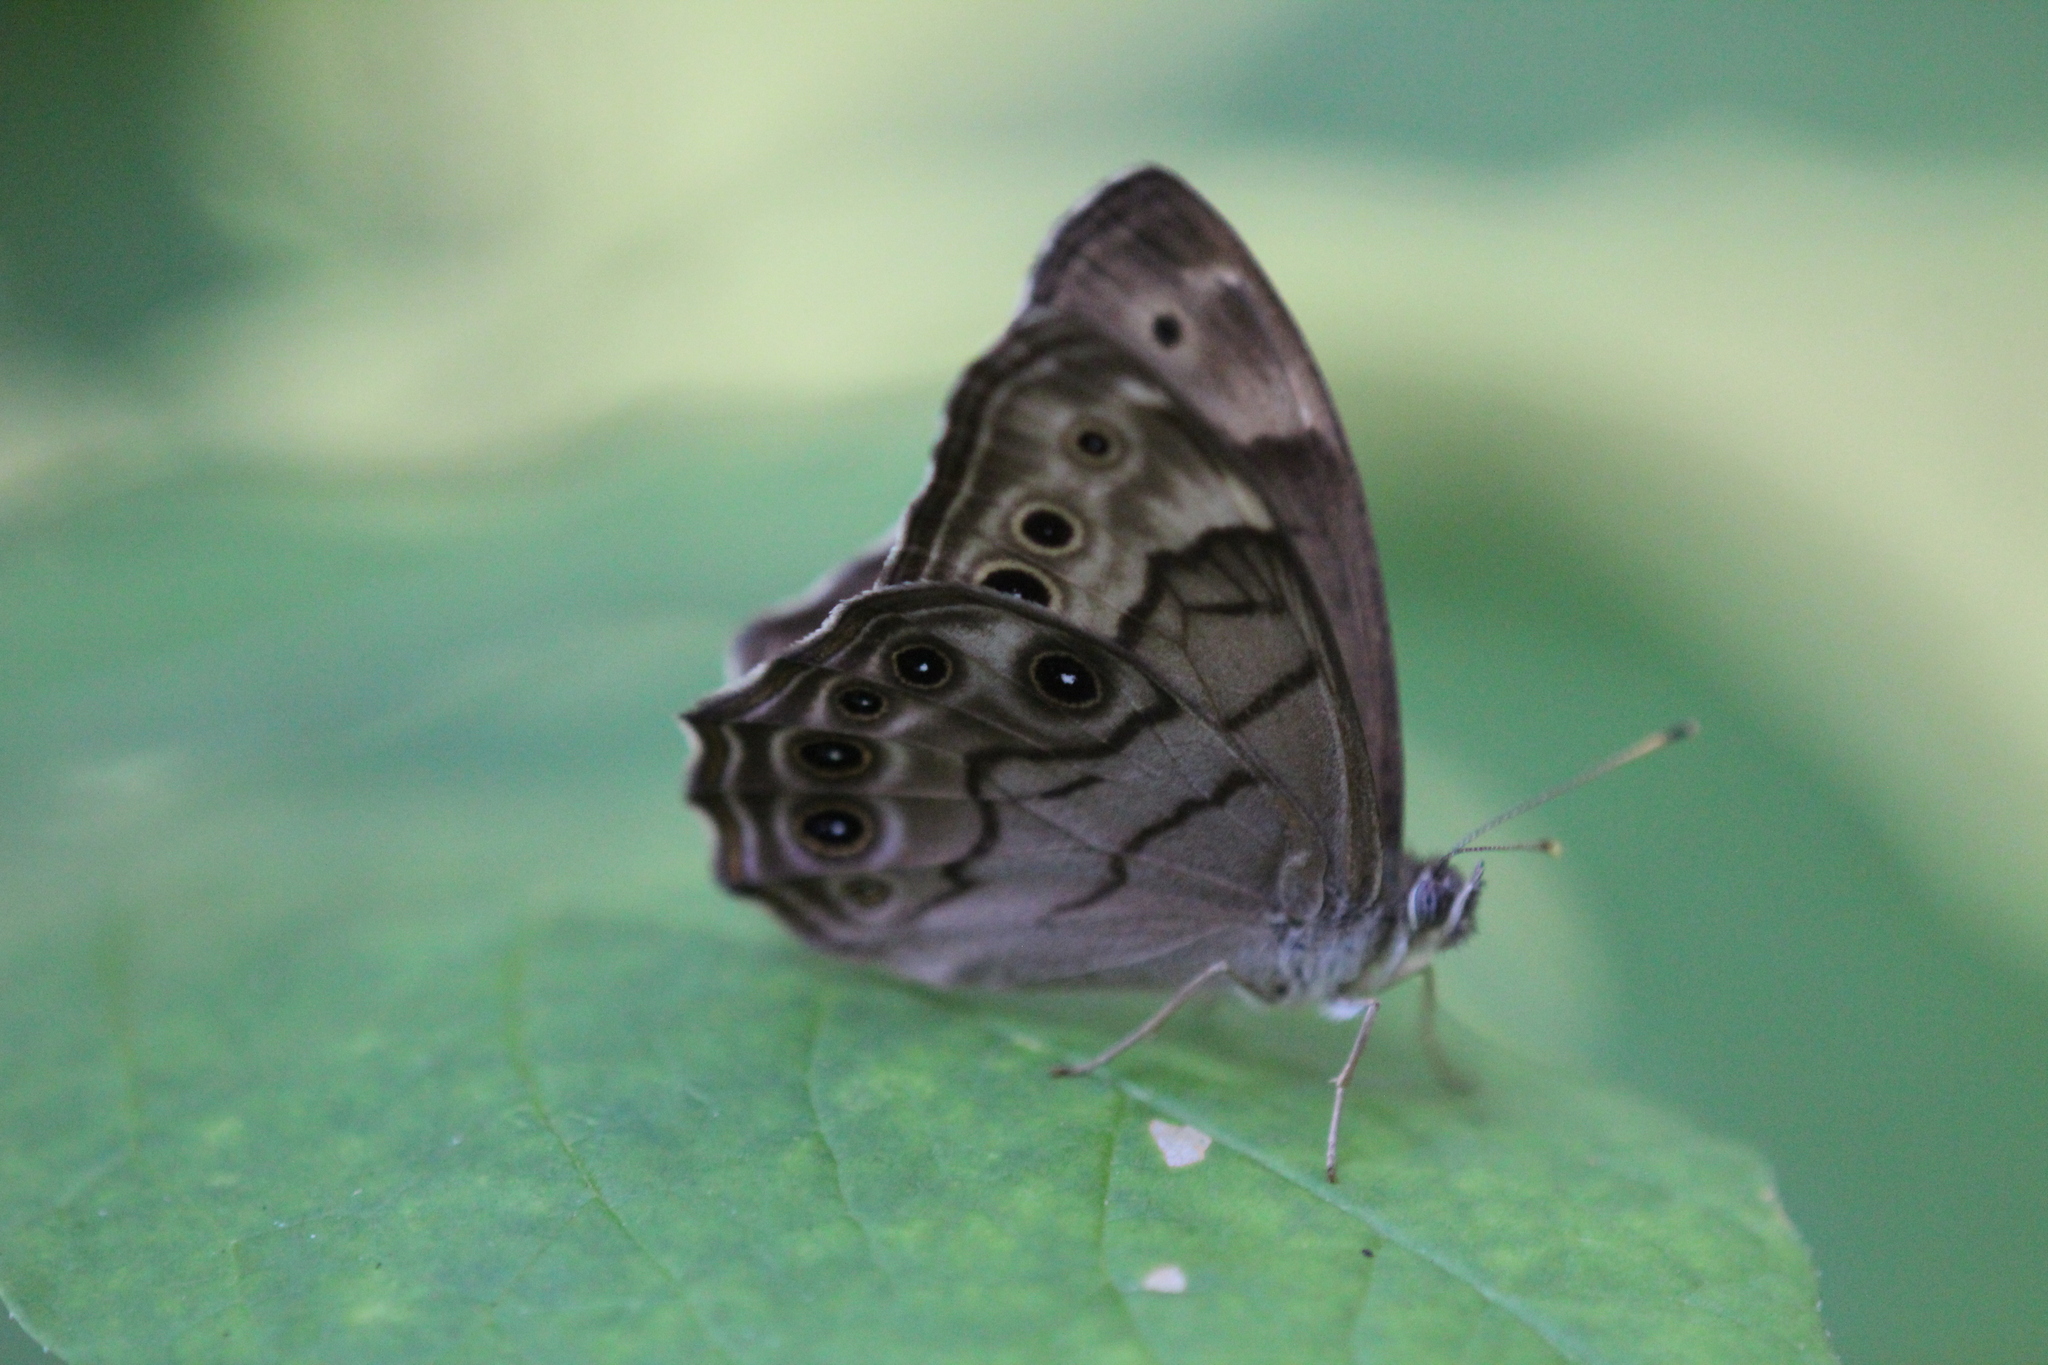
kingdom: Animalia
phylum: Arthropoda
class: Insecta
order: Lepidoptera
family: Nymphalidae
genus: Lethe
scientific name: Lethe anthedon
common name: Northern pearly-eye
